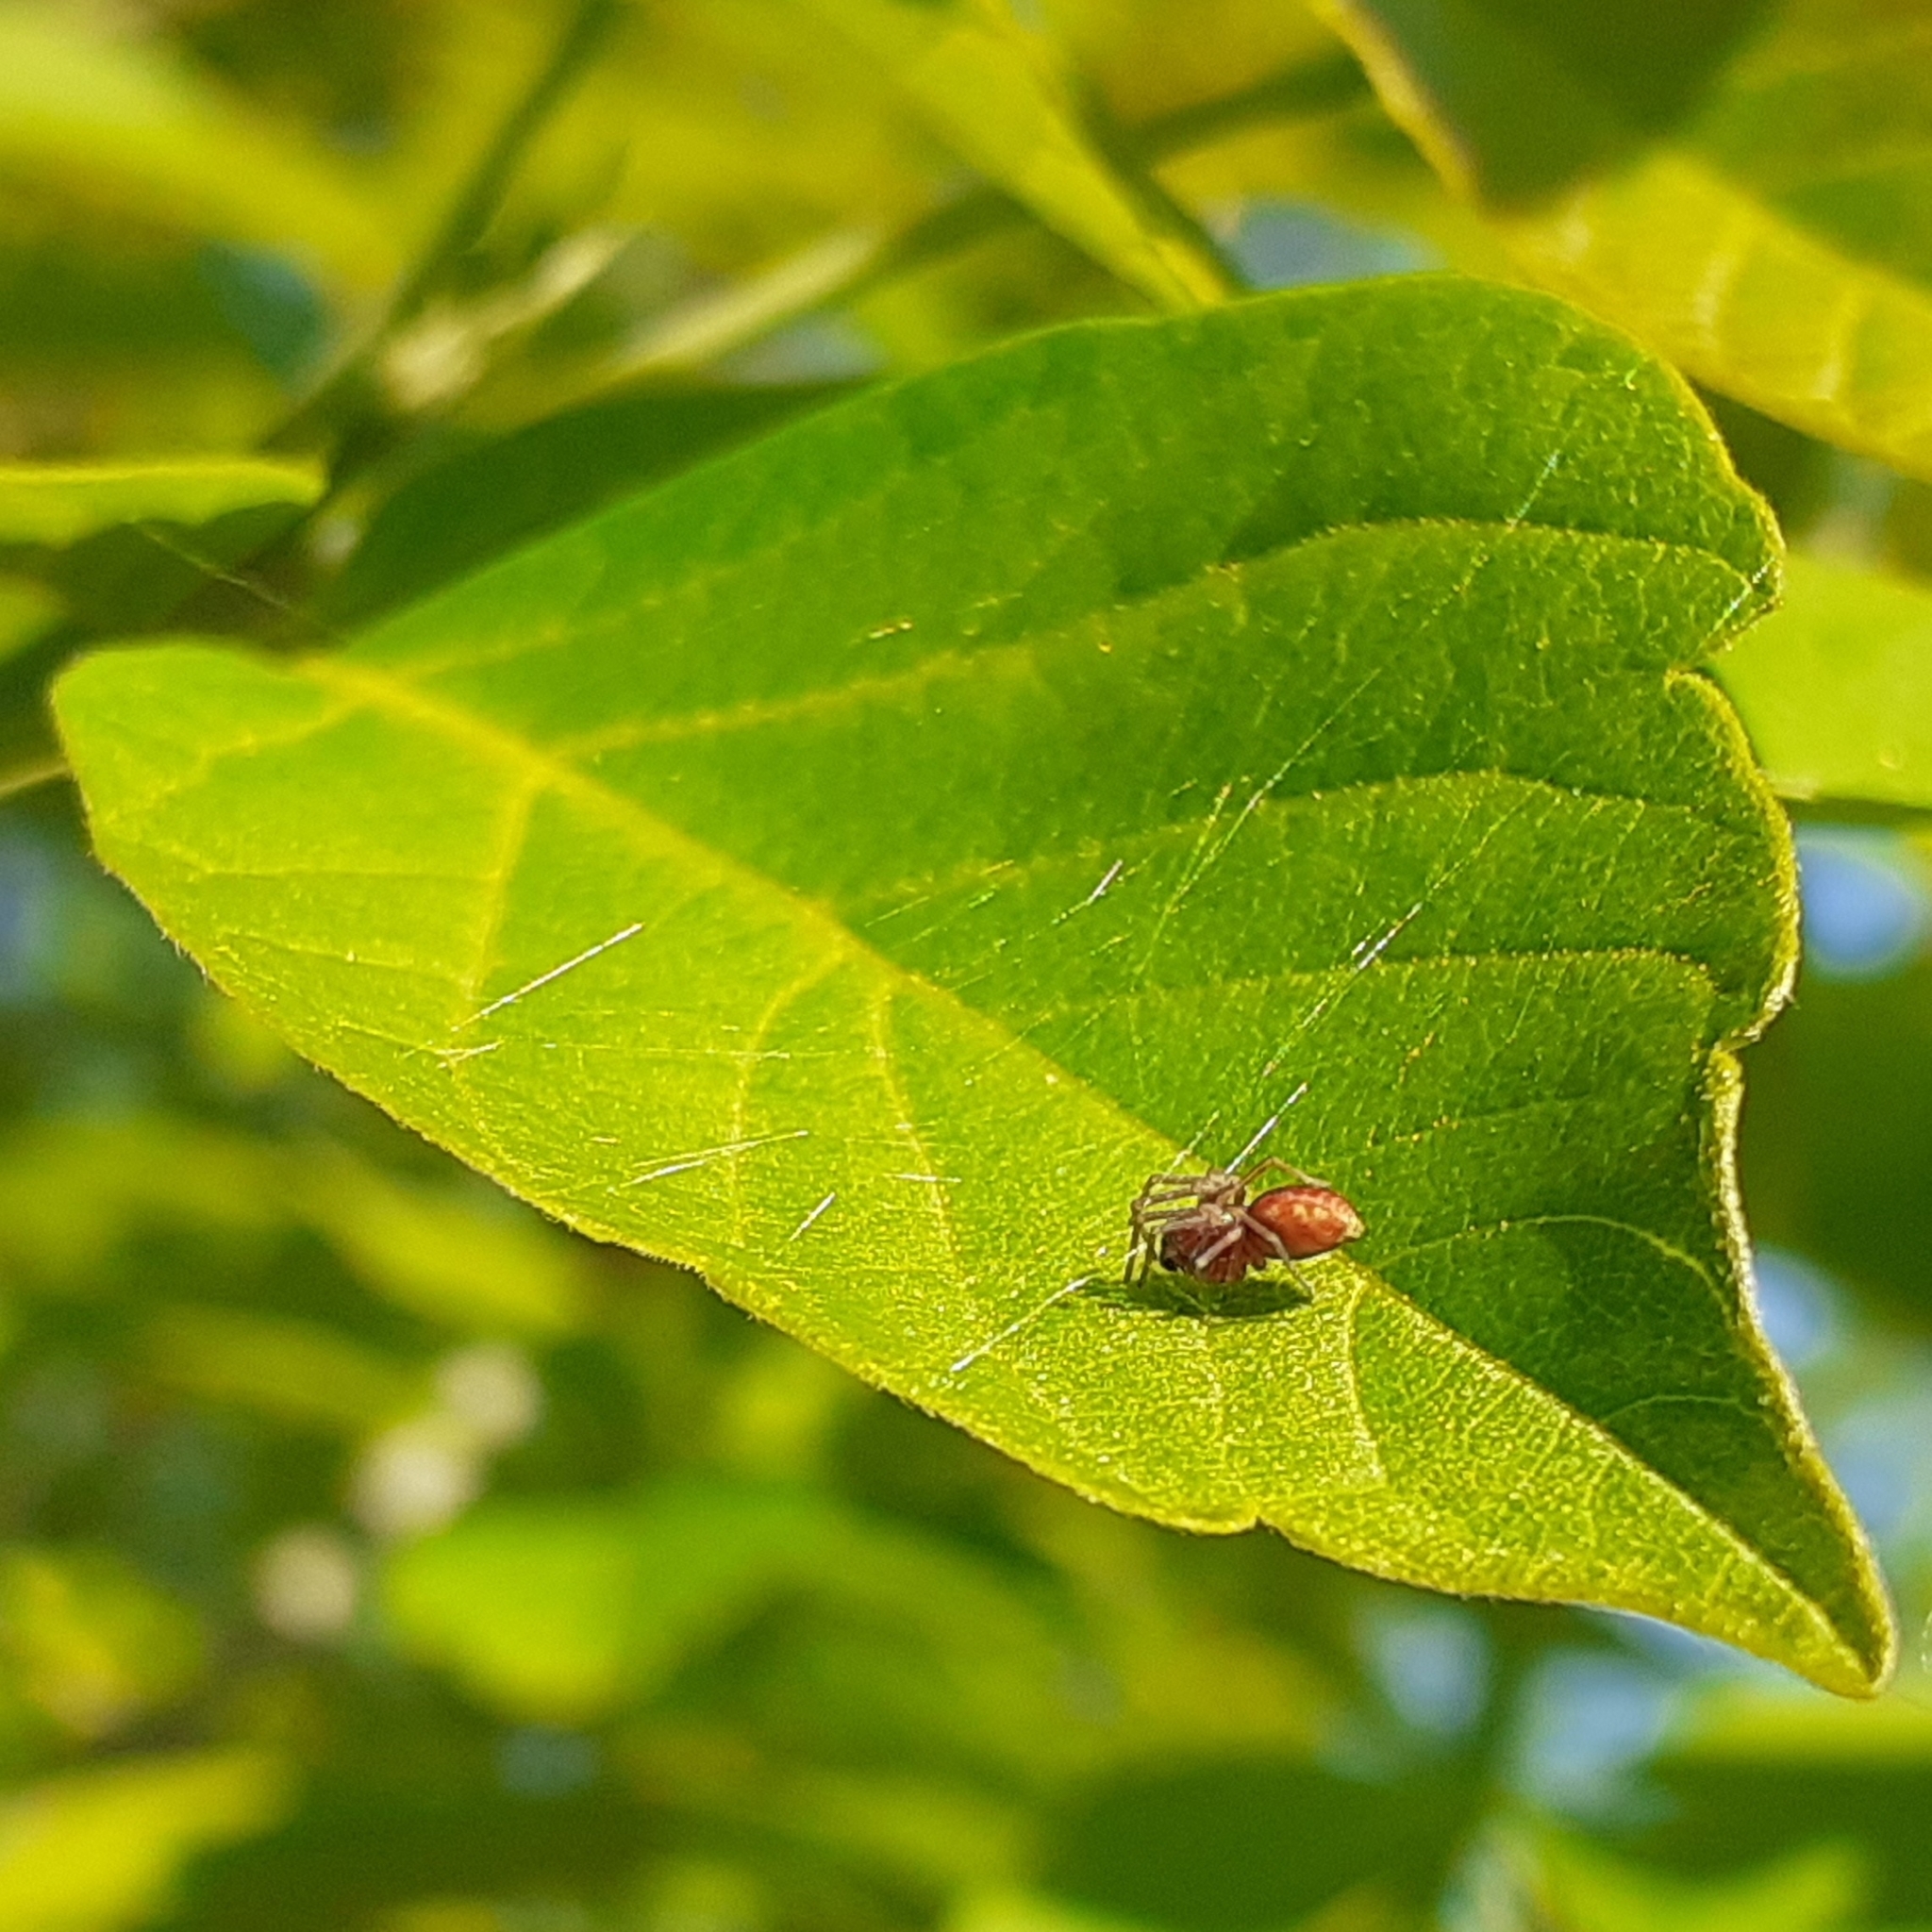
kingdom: Animalia
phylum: Arthropoda
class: Arachnida
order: Araneae
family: Dictynidae
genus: Nigma
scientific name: Nigma flavescens
